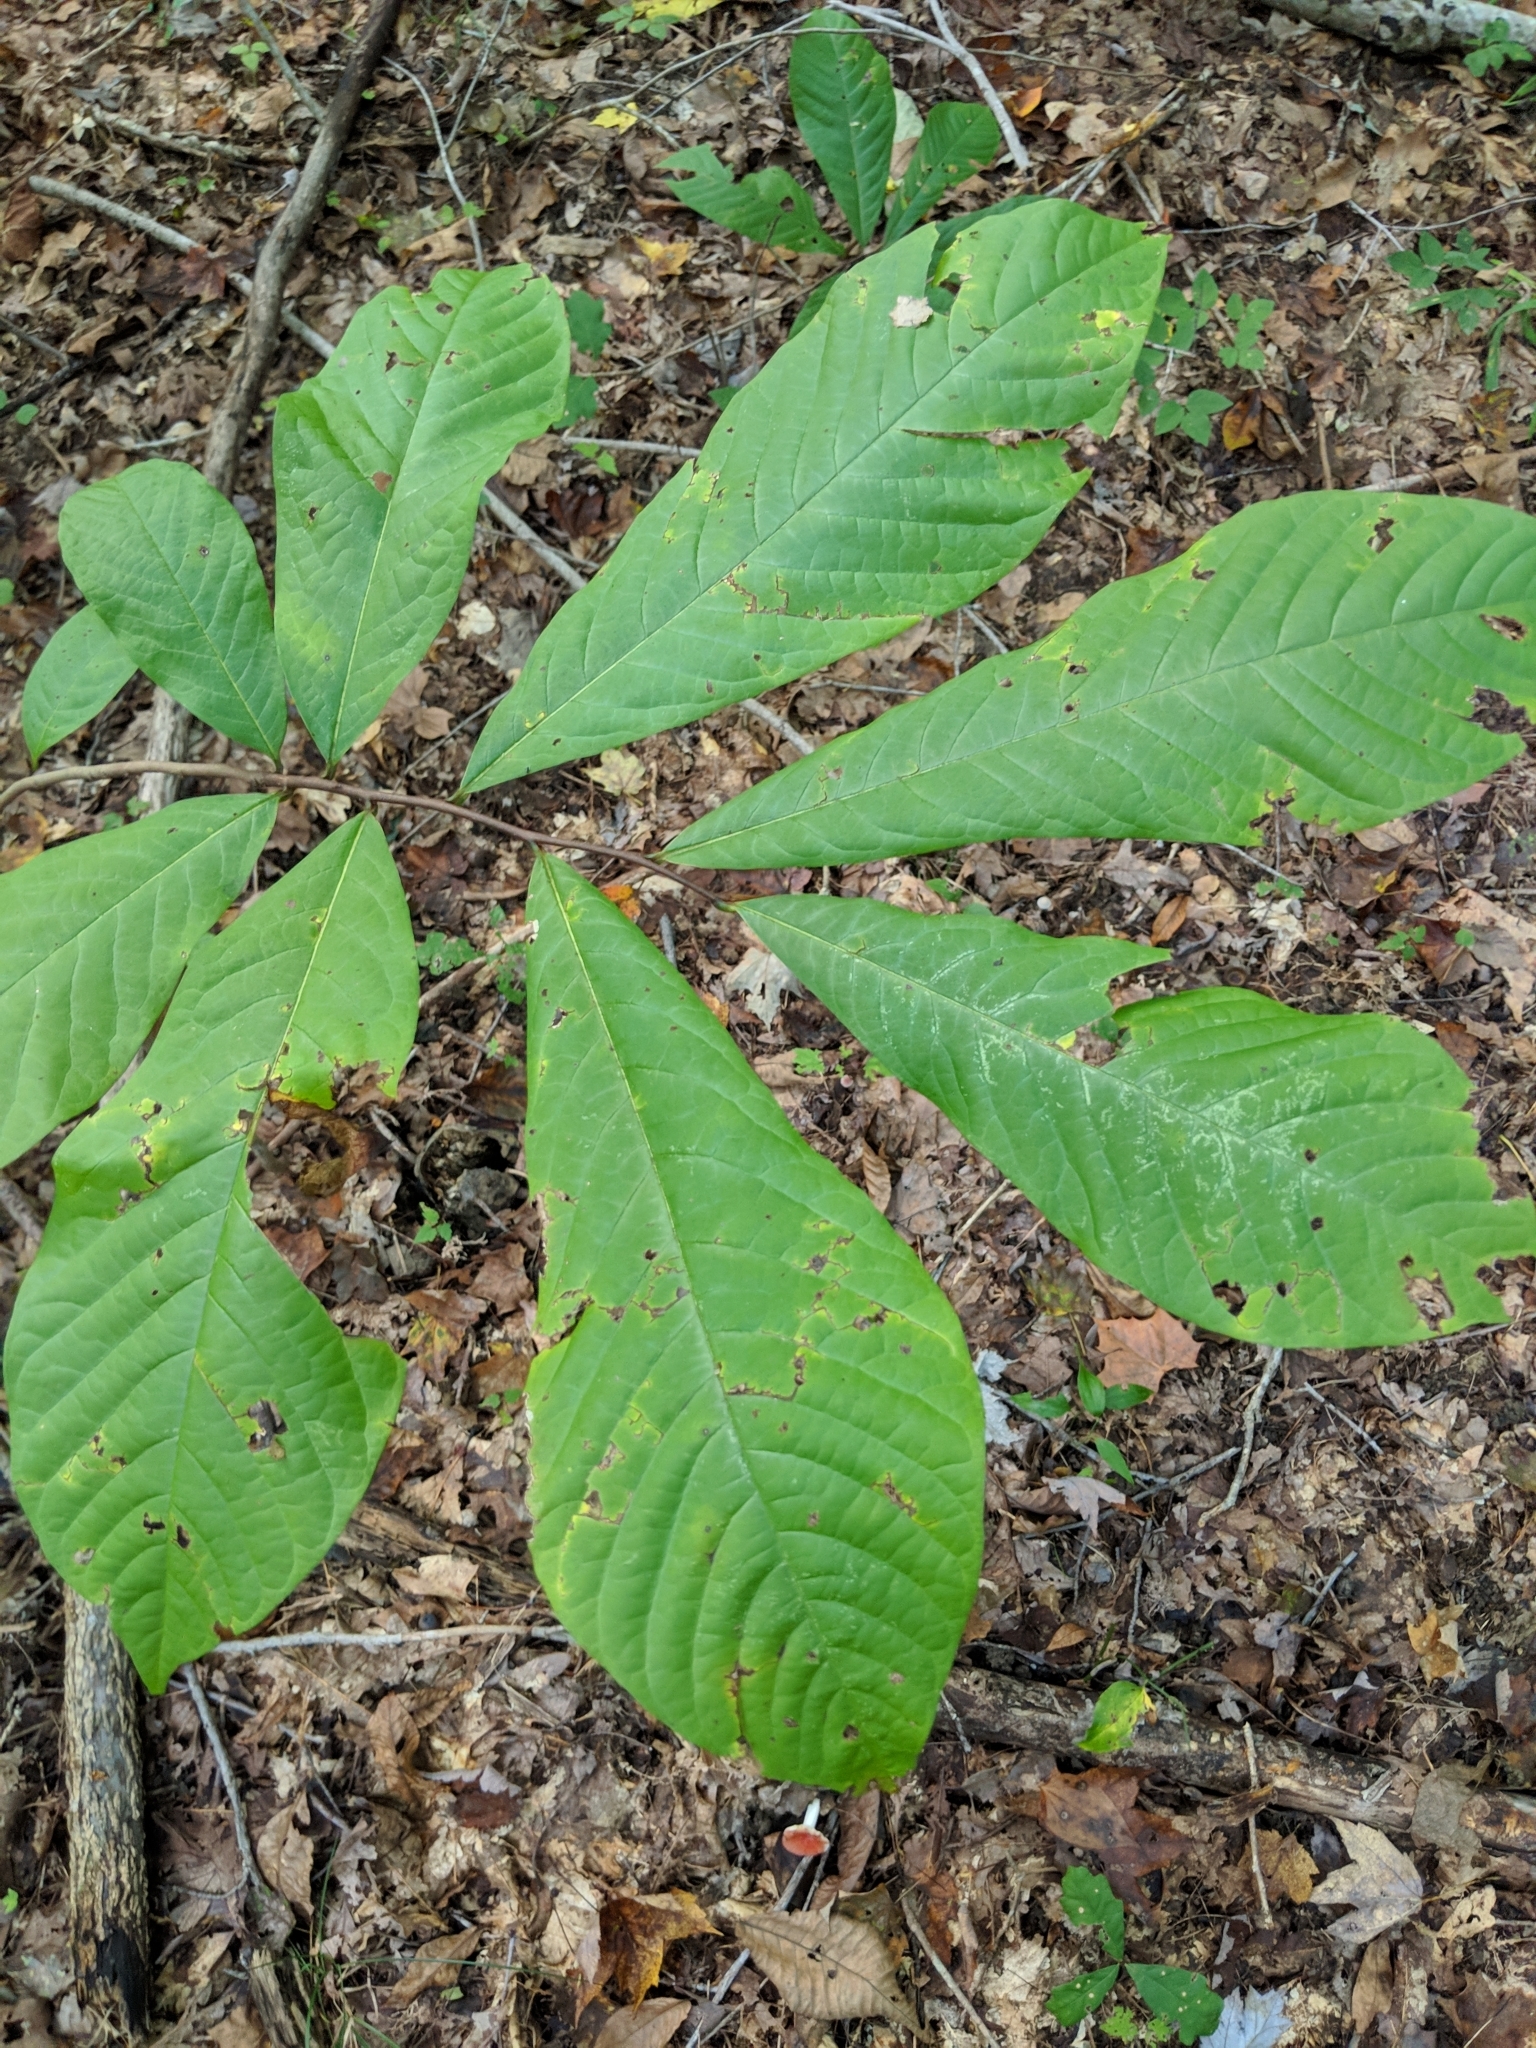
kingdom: Plantae
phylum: Tracheophyta
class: Magnoliopsida
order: Magnoliales
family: Annonaceae
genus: Asimina
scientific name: Asimina triloba
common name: Dog-banana
